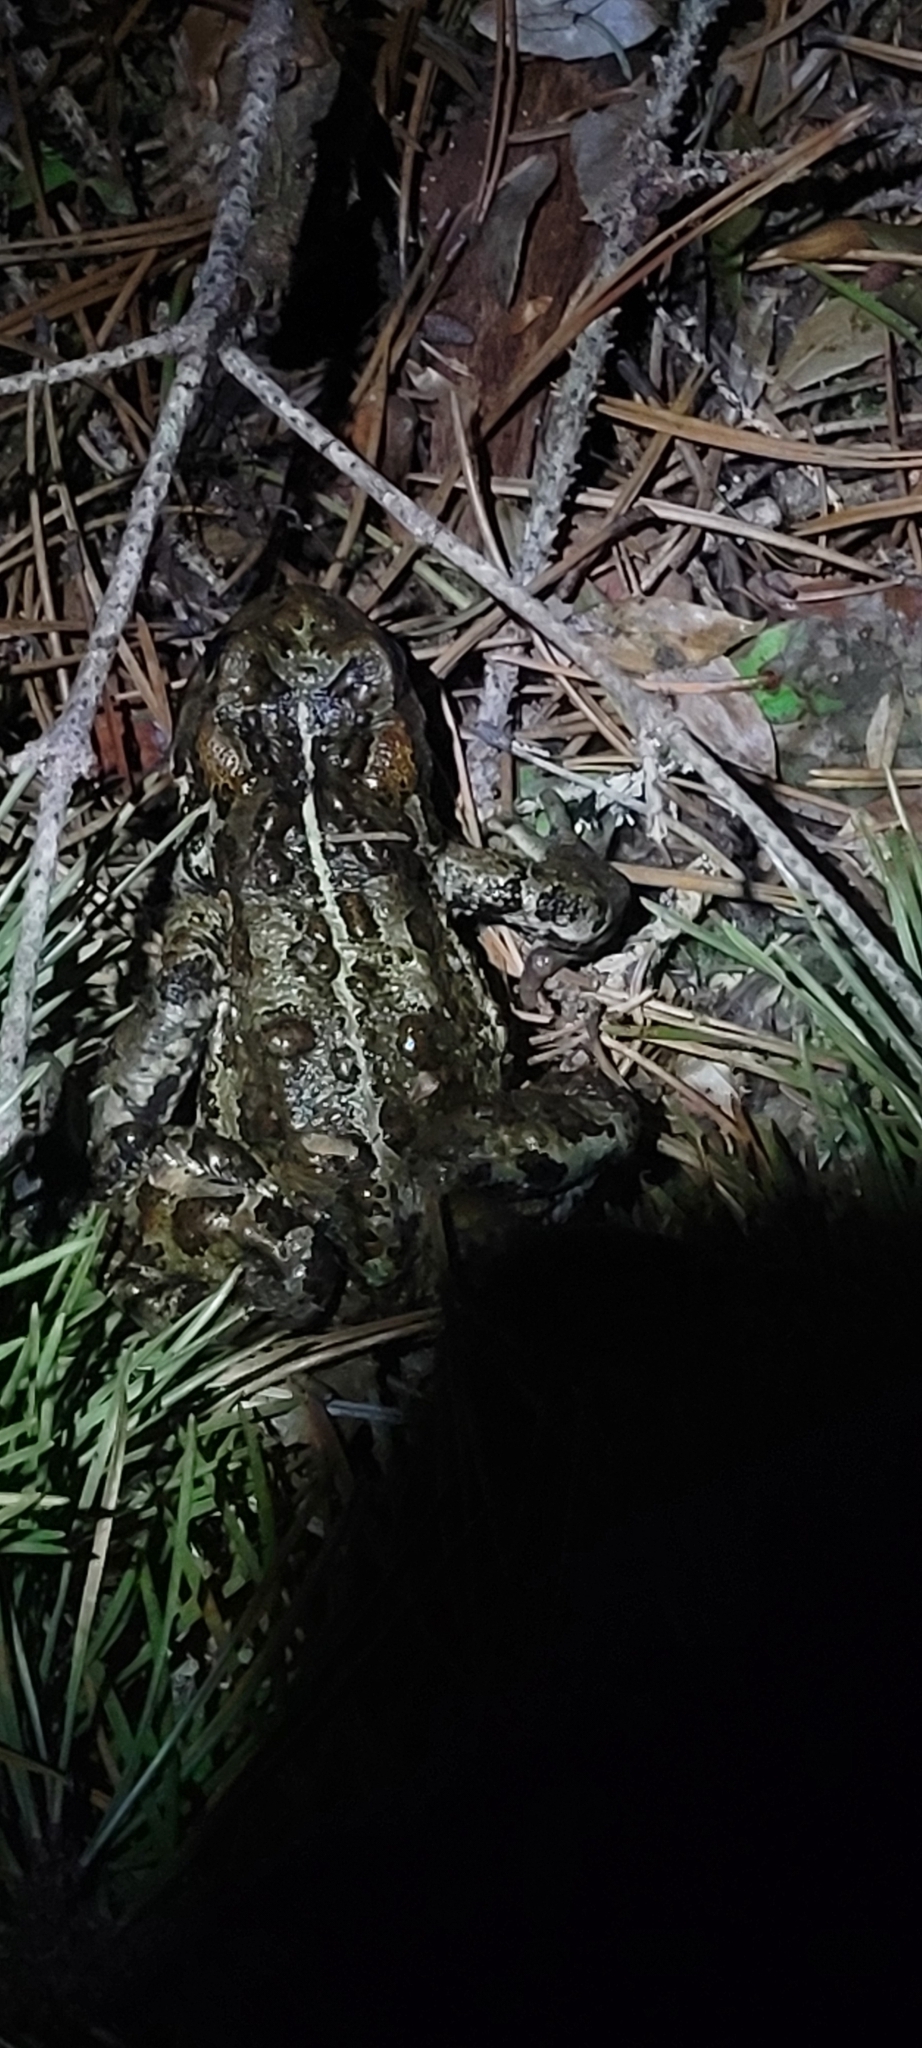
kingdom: Animalia
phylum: Chordata
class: Amphibia
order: Anura
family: Bufonidae
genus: Anaxyrus
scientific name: Anaxyrus boreas
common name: Western toad
